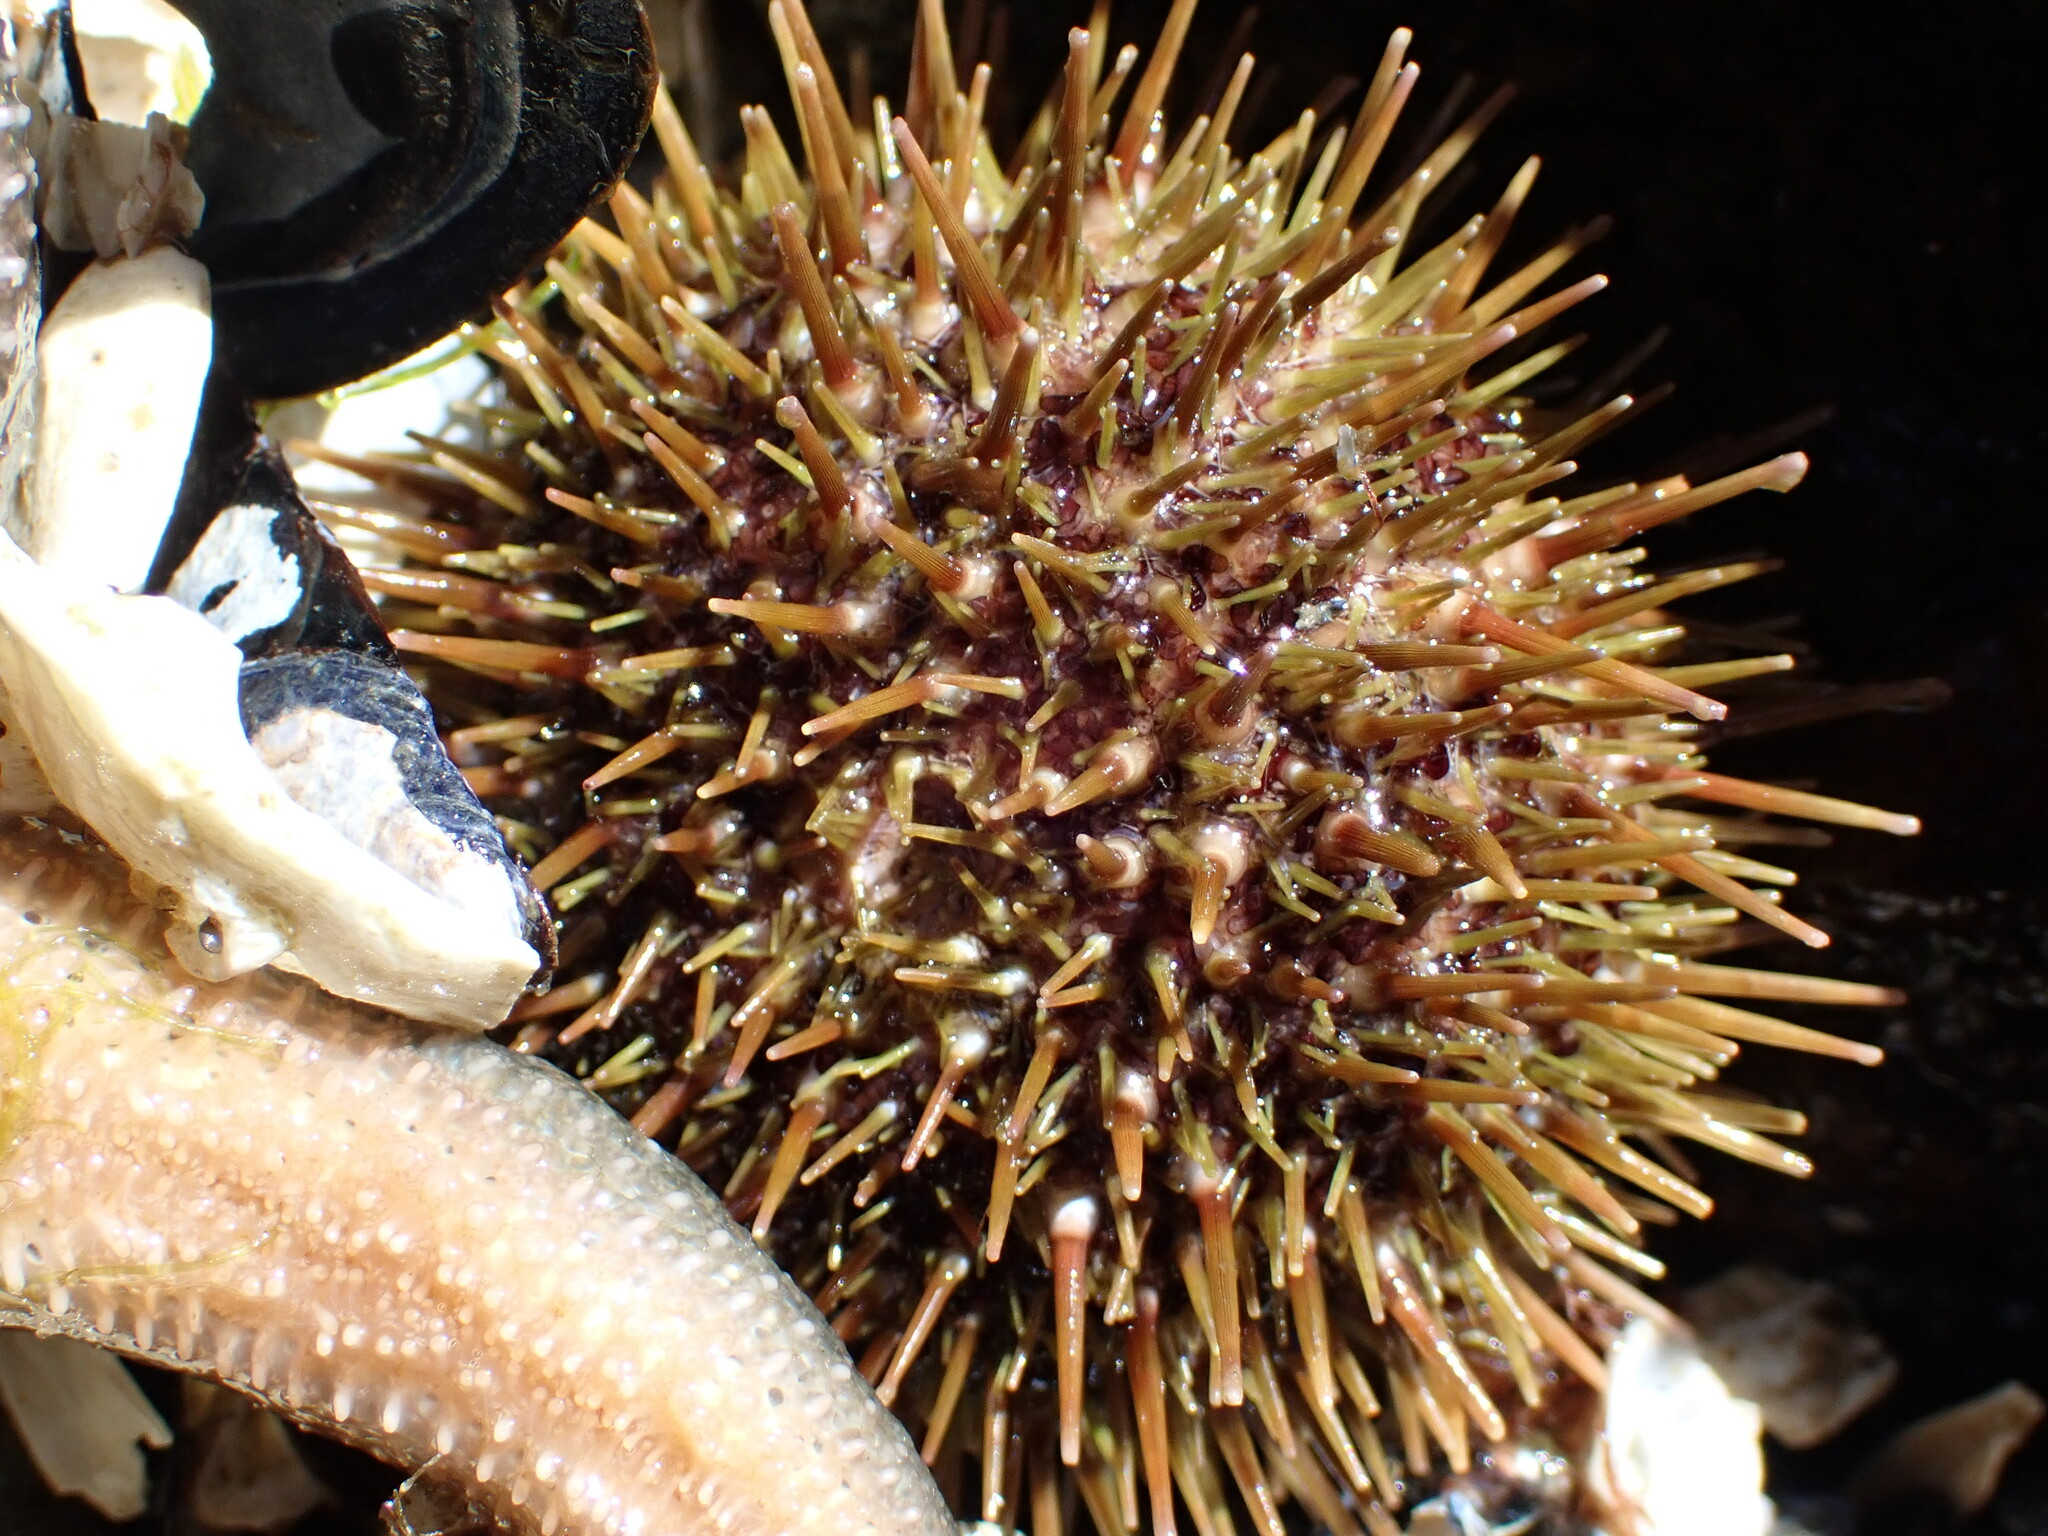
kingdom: Animalia
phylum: Echinodermata
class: Echinoidea
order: Camarodonta
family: Strongylocentrotidae
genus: Strongylocentrotus
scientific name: Strongylocentrotus droebachiensis
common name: Northern sea urchin
